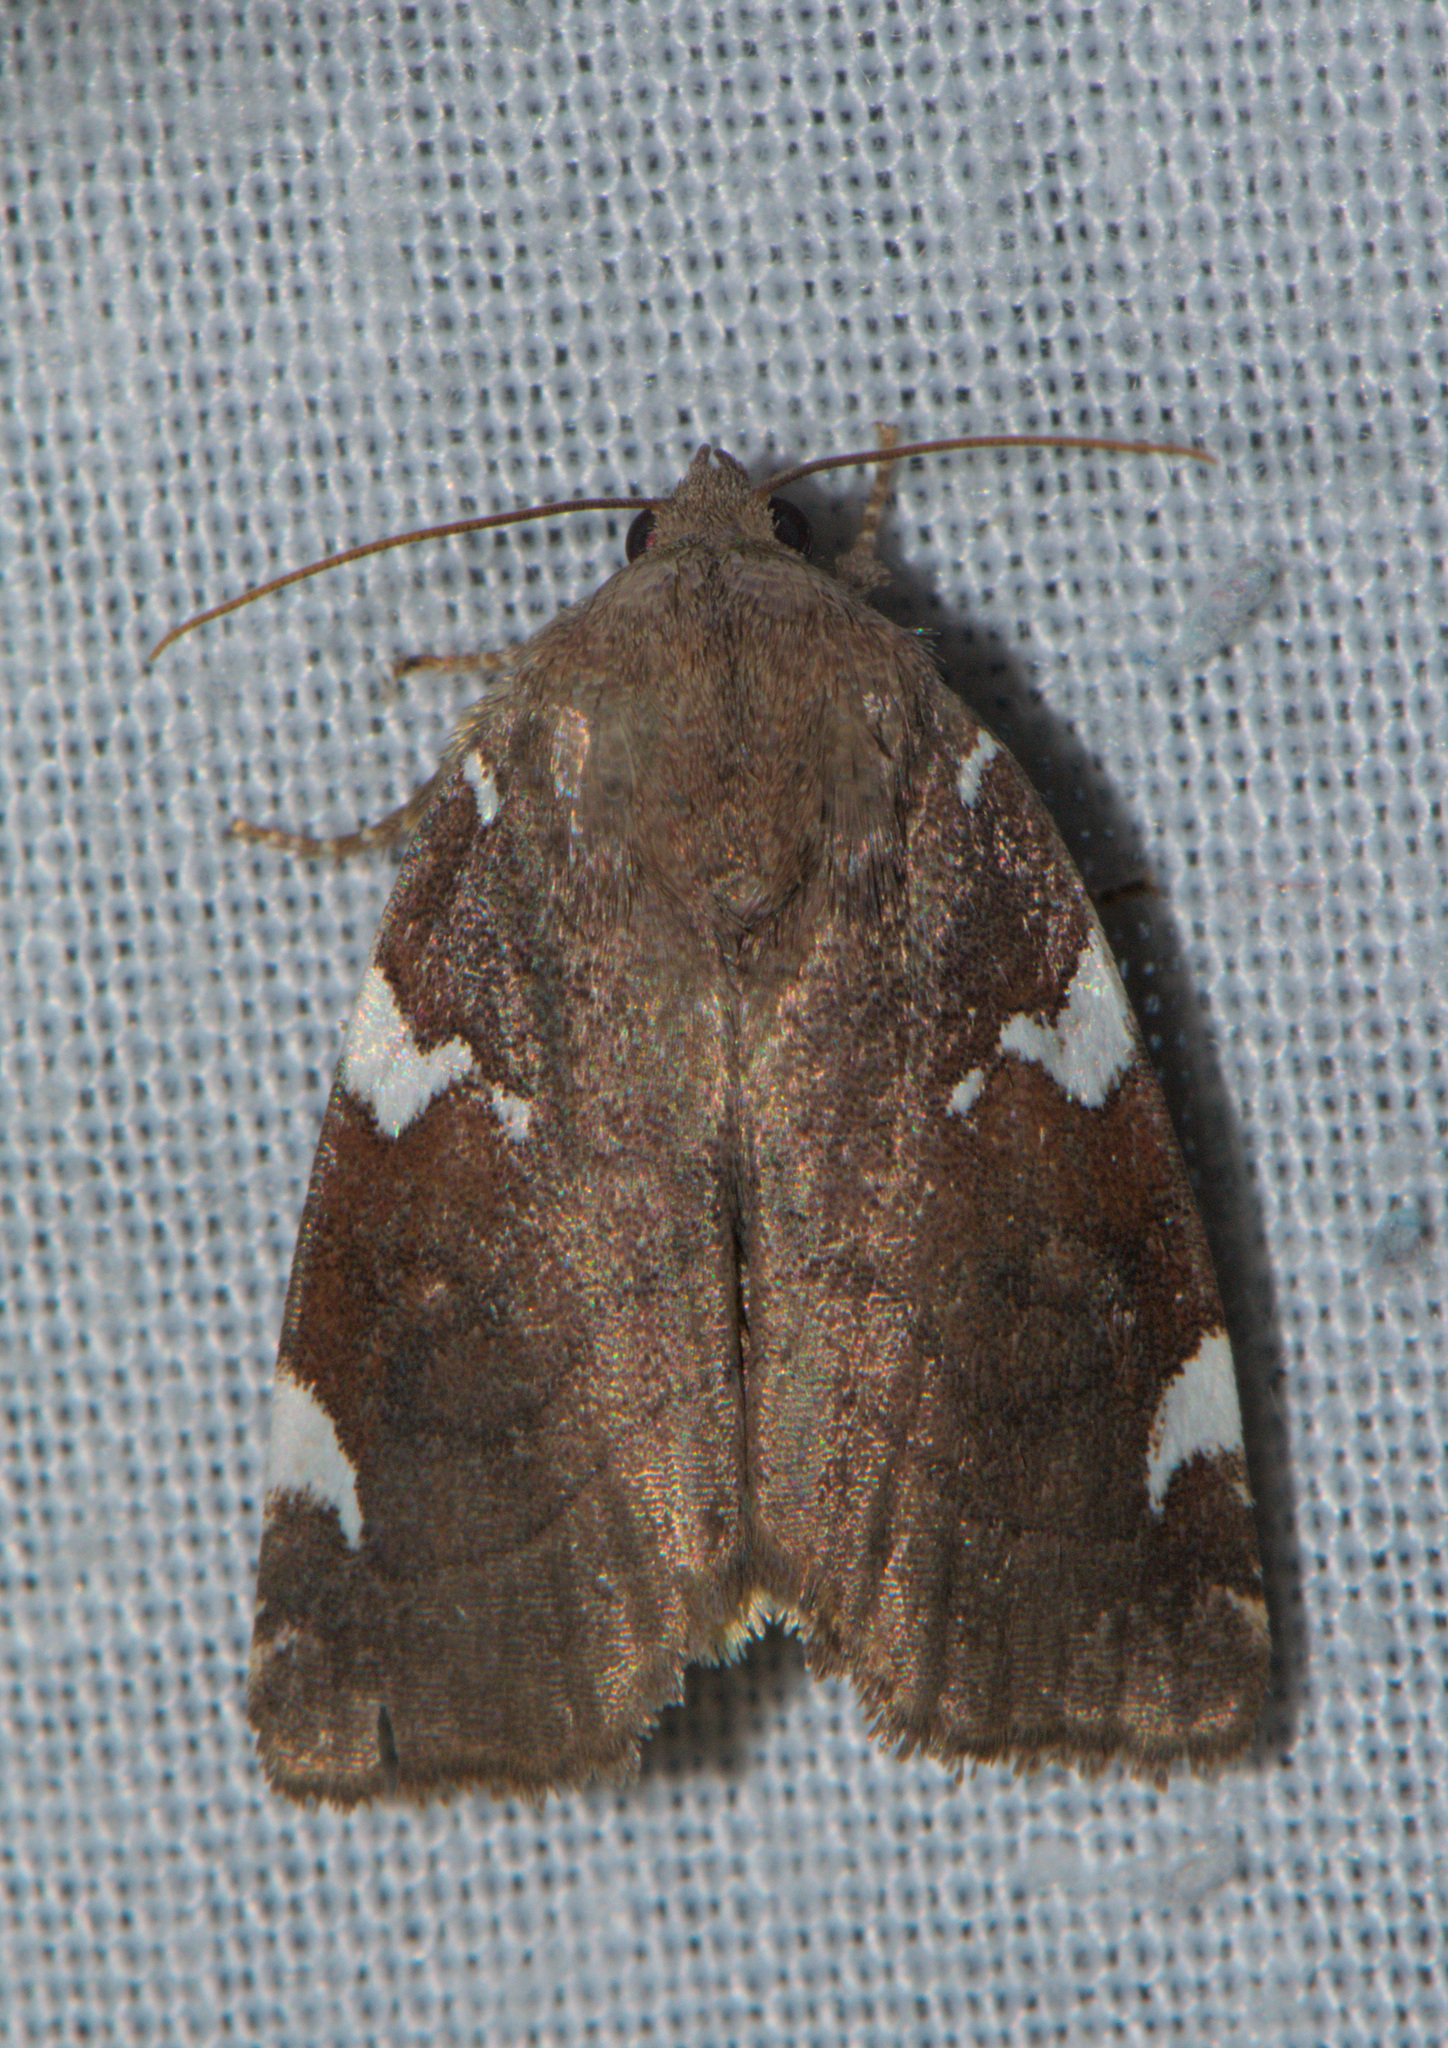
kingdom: Animalia
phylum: Arthropoda
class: Insecta
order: Lepidoptera
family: Noctuidae
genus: Cosmia
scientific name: Cosmia restituta
